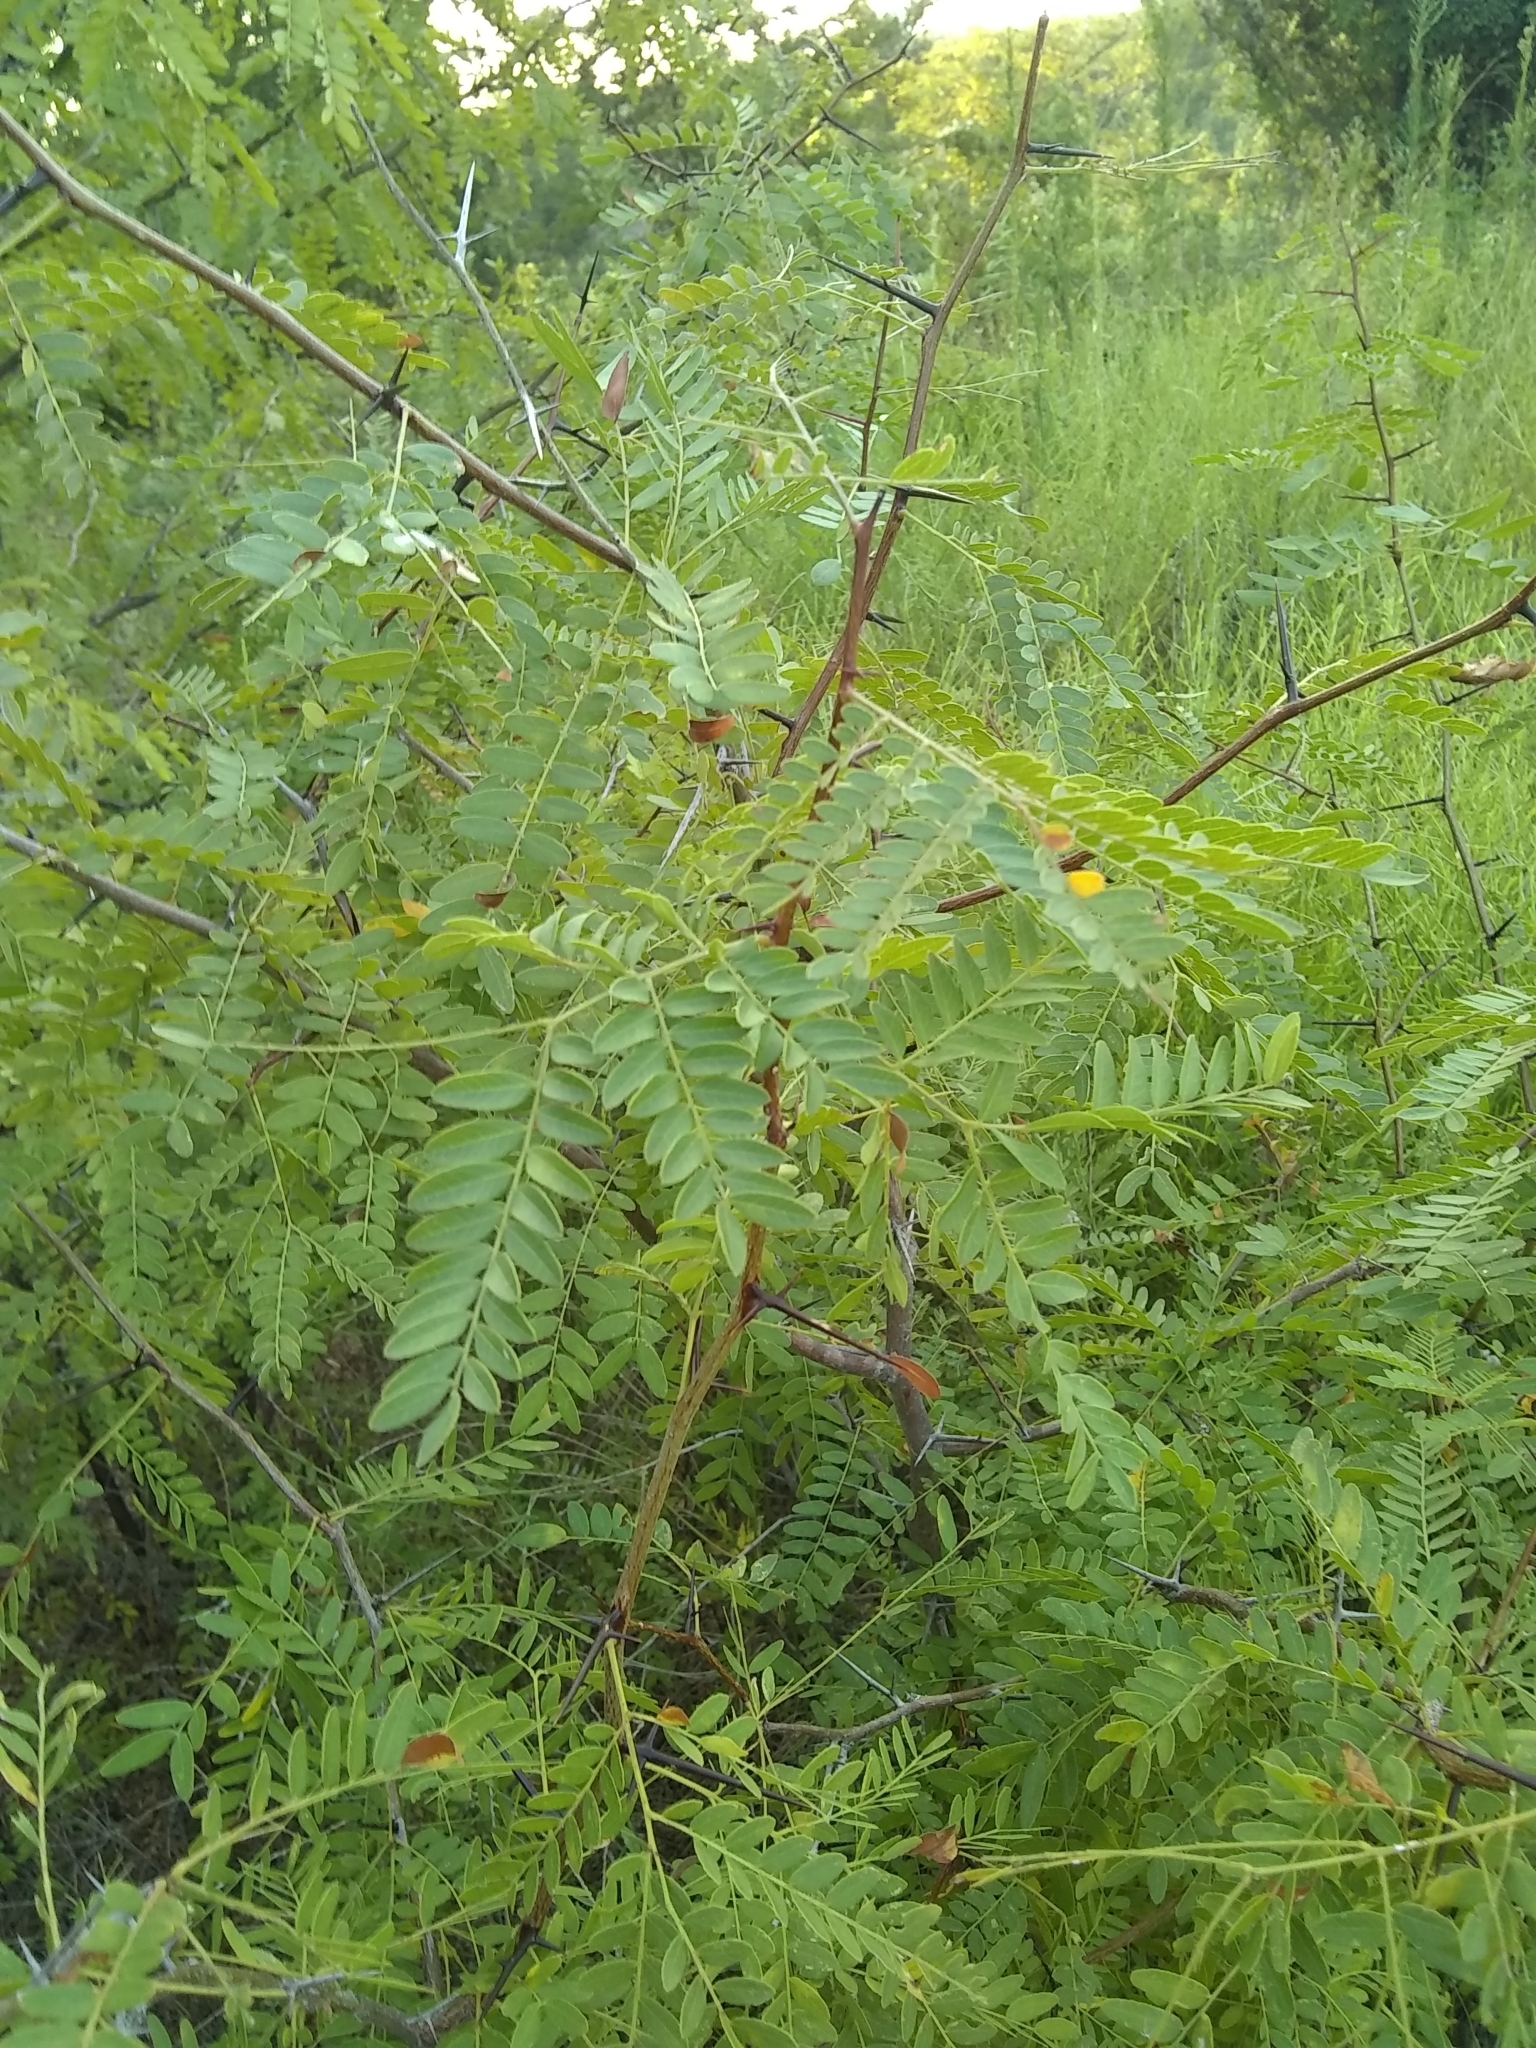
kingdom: Plantae
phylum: Tracheophyta
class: Magnoliopsida
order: Fabales
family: Fabaceae
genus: Gleditsia
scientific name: Gleditsia triacanthos
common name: Common honeylocust
